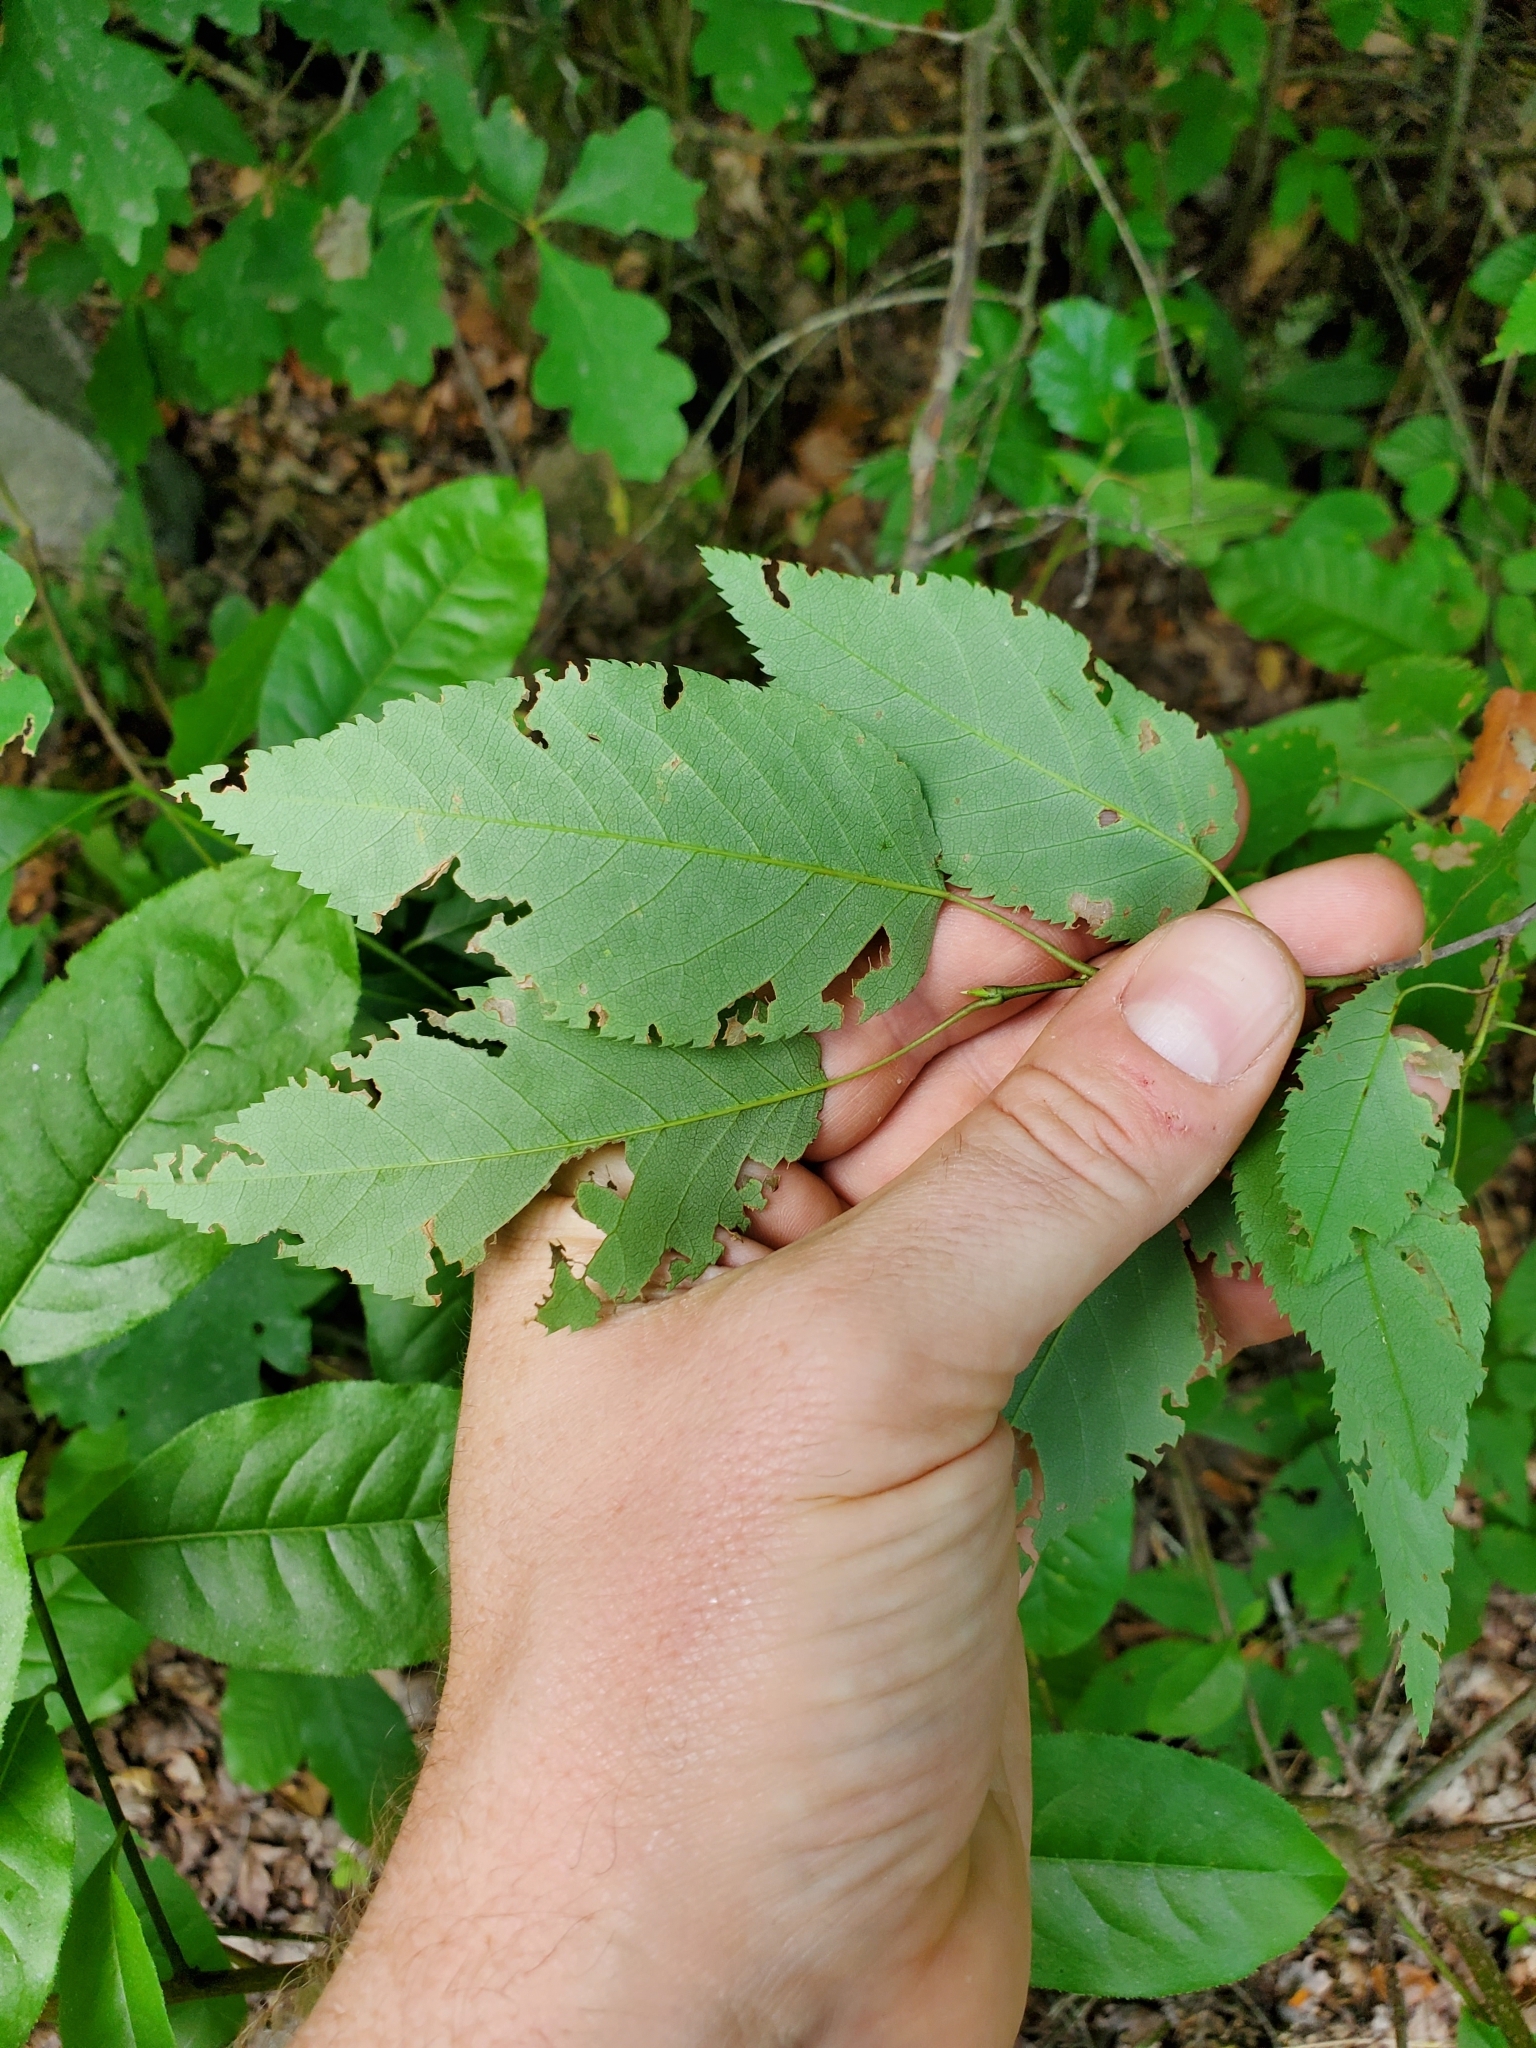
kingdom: Plantae
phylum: Tracheophyta
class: Magnoliopsida
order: Fagales
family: Betulaceae
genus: Betula
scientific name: Betula alleghaniensis
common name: Yellow birch
